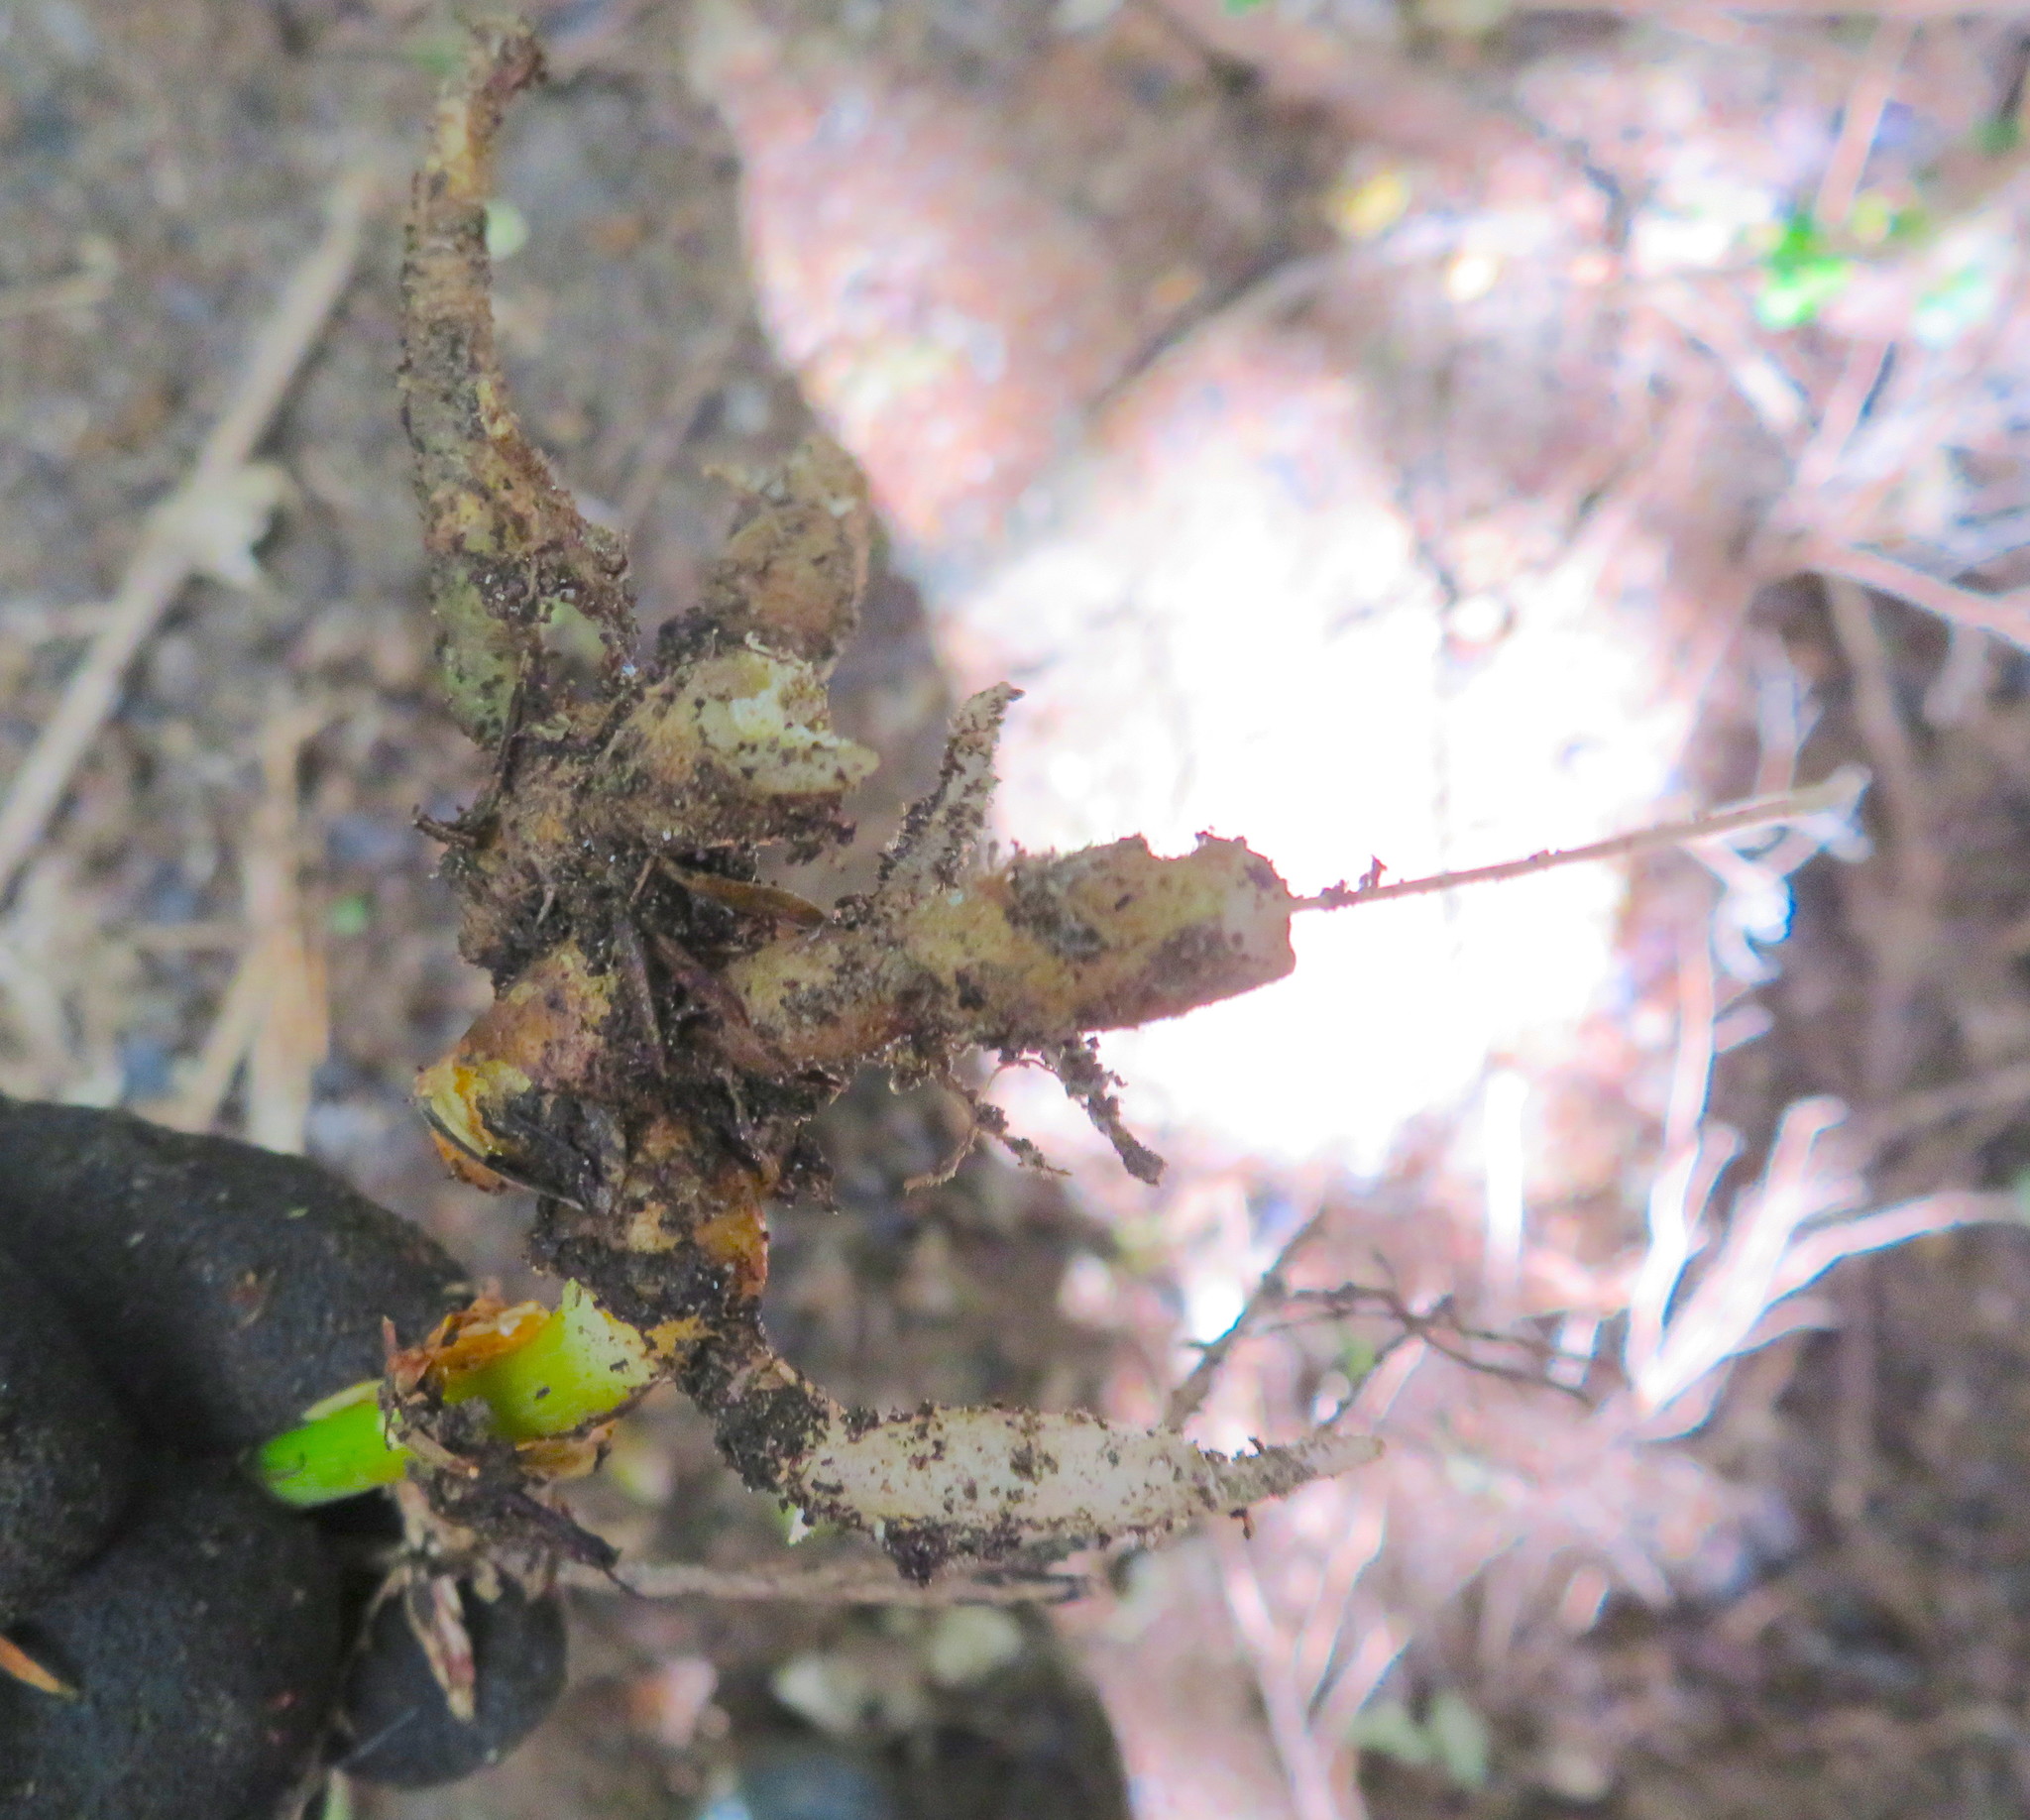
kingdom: Plantae
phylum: Tracheophyta
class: Liliopsida
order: Zingiberales
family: Zingiberaceae
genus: Hedychium
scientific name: Hedychium gardnerianum
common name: Himalayan ginger
